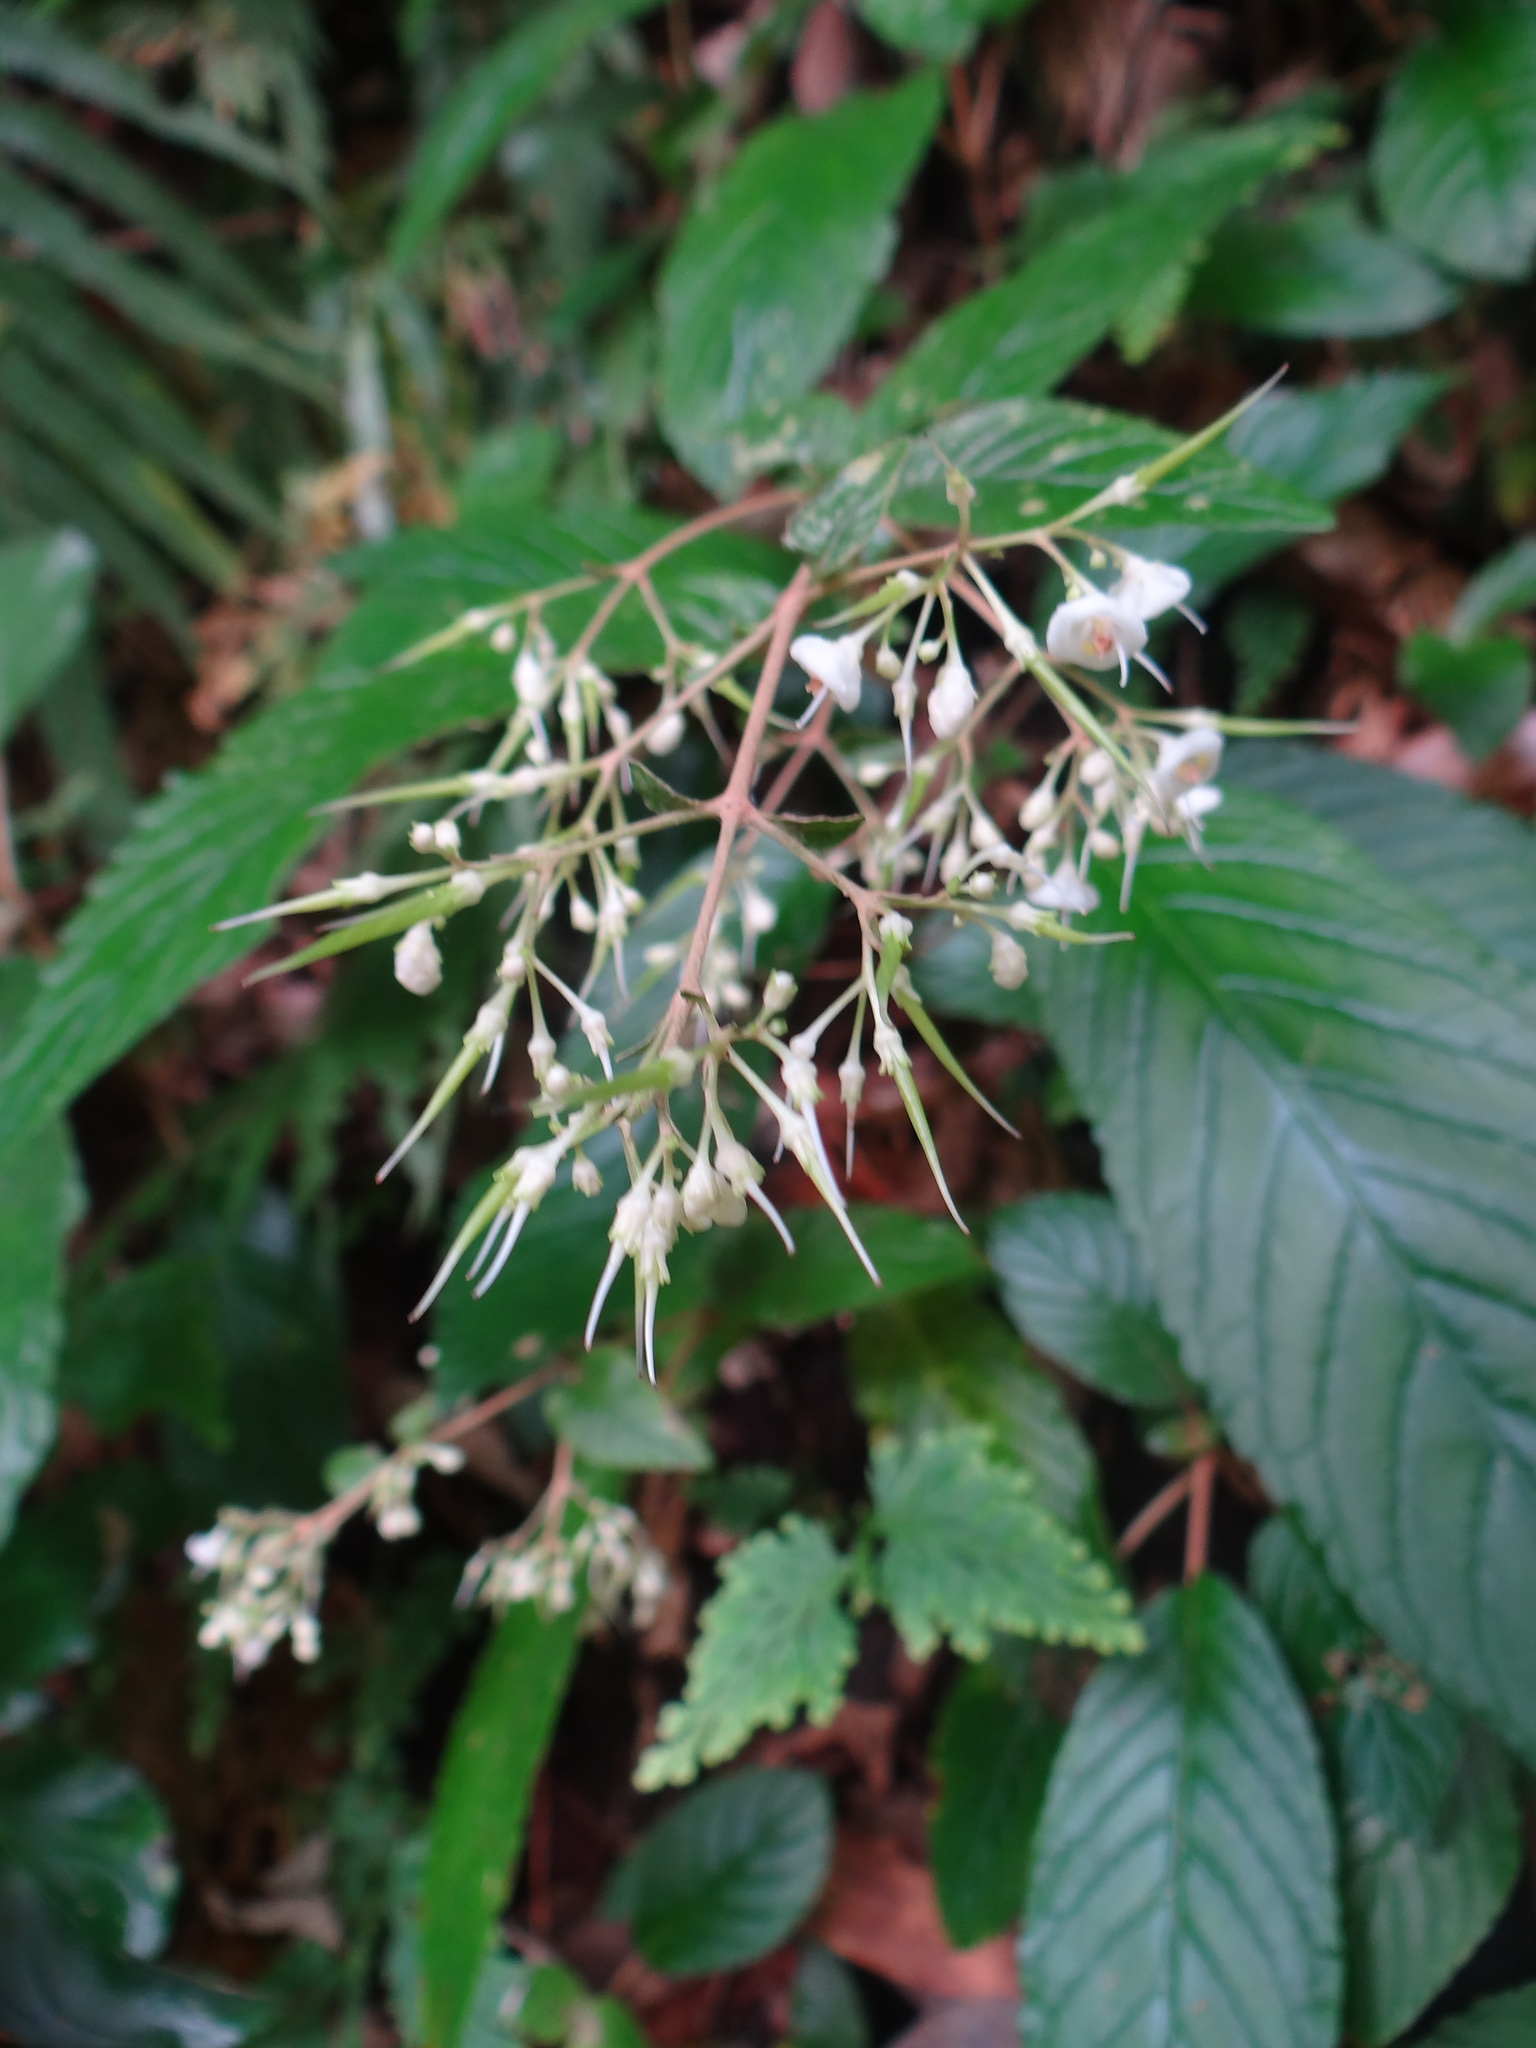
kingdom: Plantae
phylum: Tracheophyta
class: Magnoliopsida
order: Lamiales
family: Gesneriaceae
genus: Paraboea
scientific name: Paraboea swinhoei
